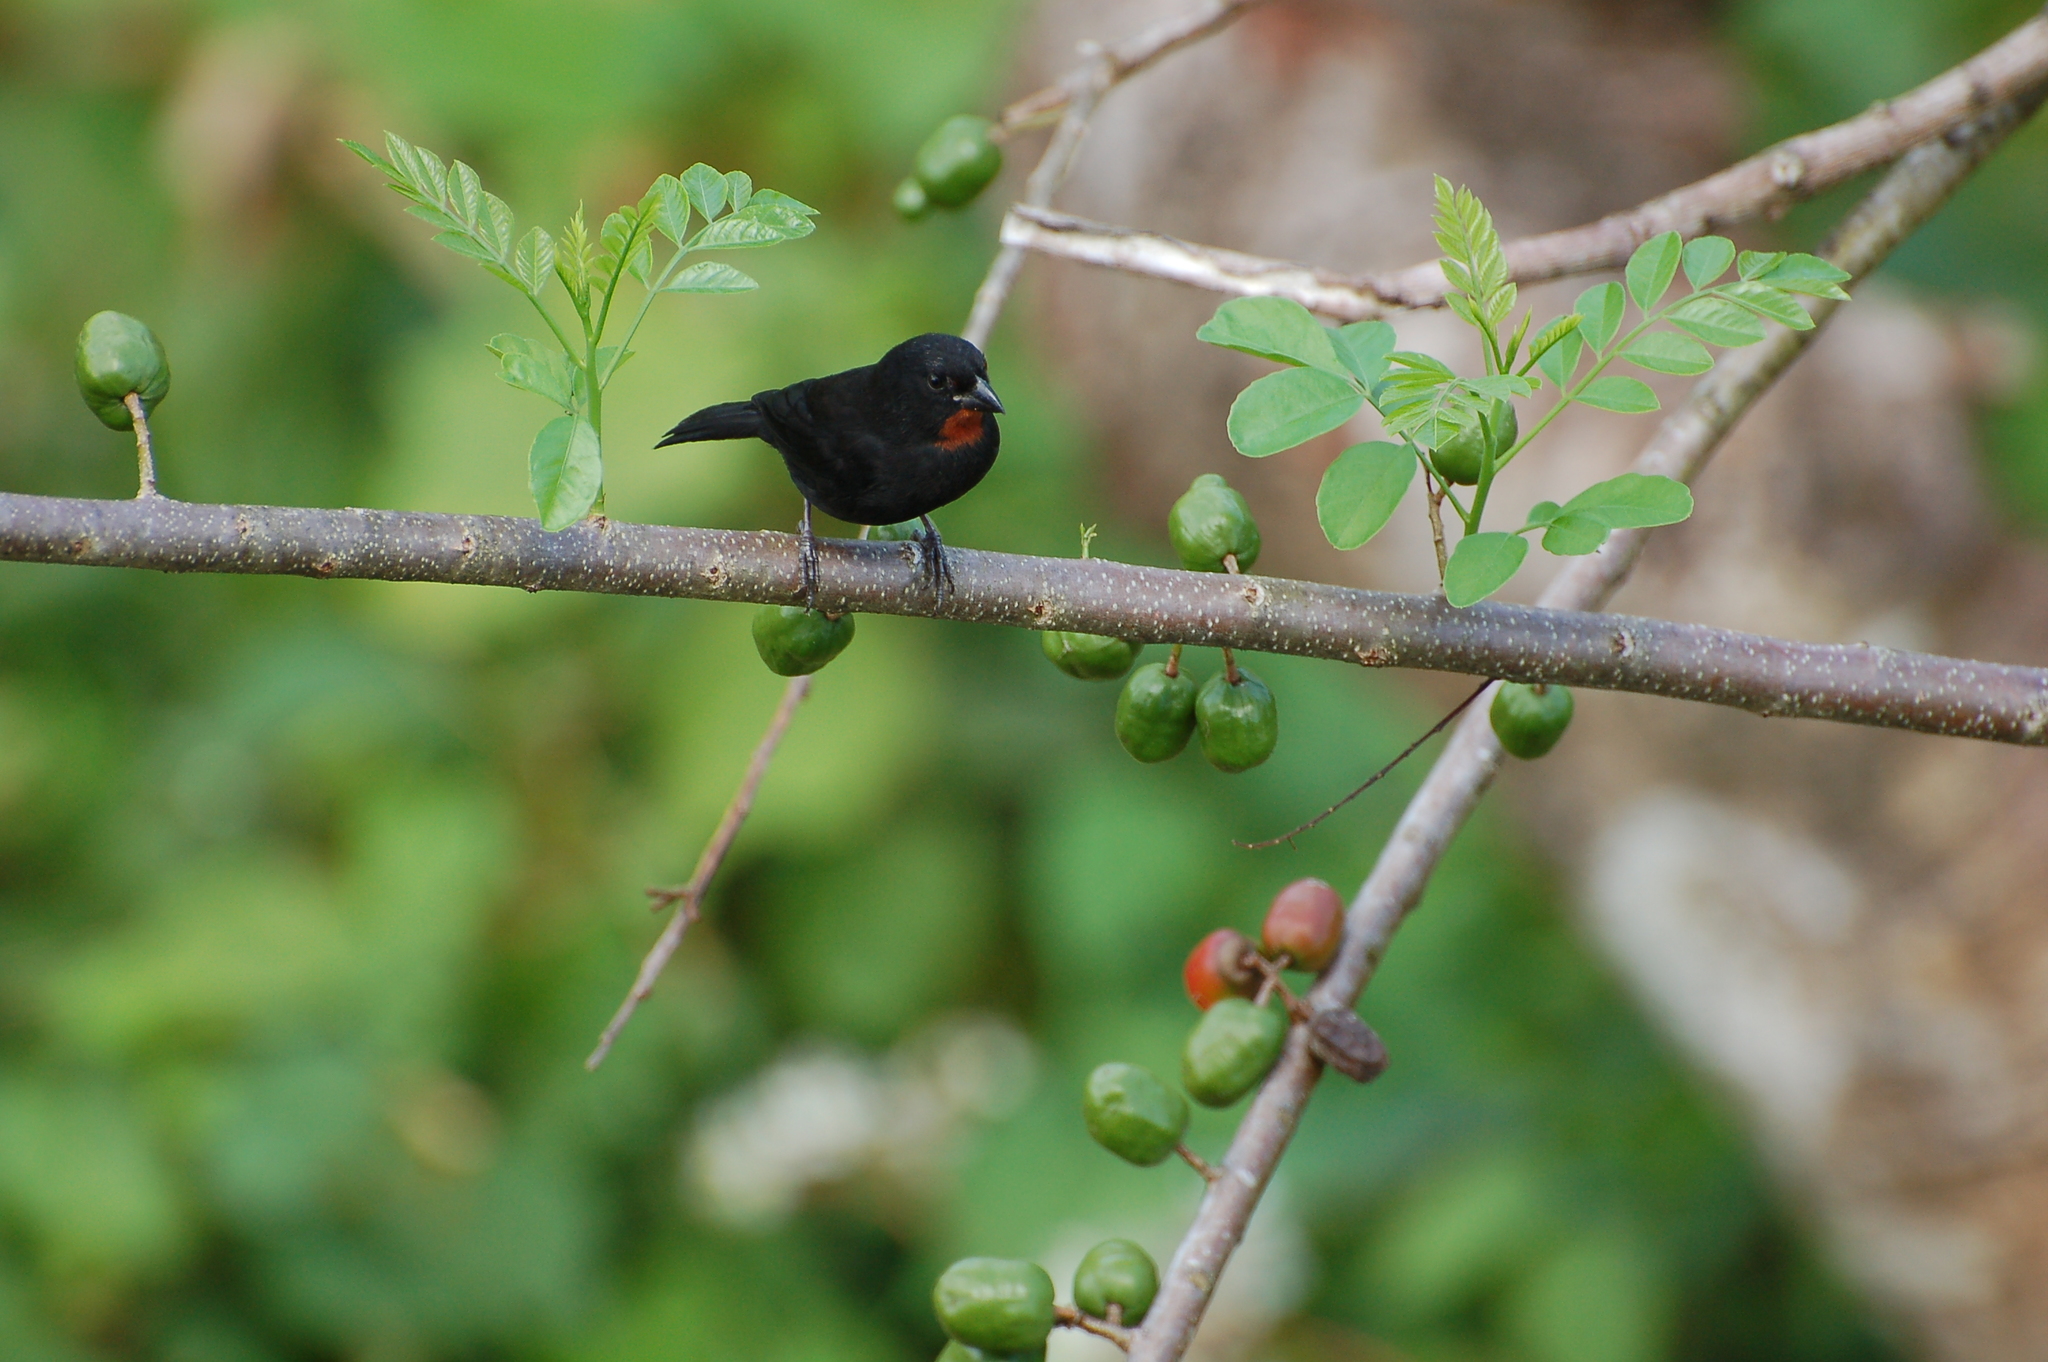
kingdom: Animalia
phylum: Chordata
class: Aves
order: Passeriformes
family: Thraupidae
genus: Loxigilla
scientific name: Loxigilla noctis
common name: Lesser antillean bullfinch
